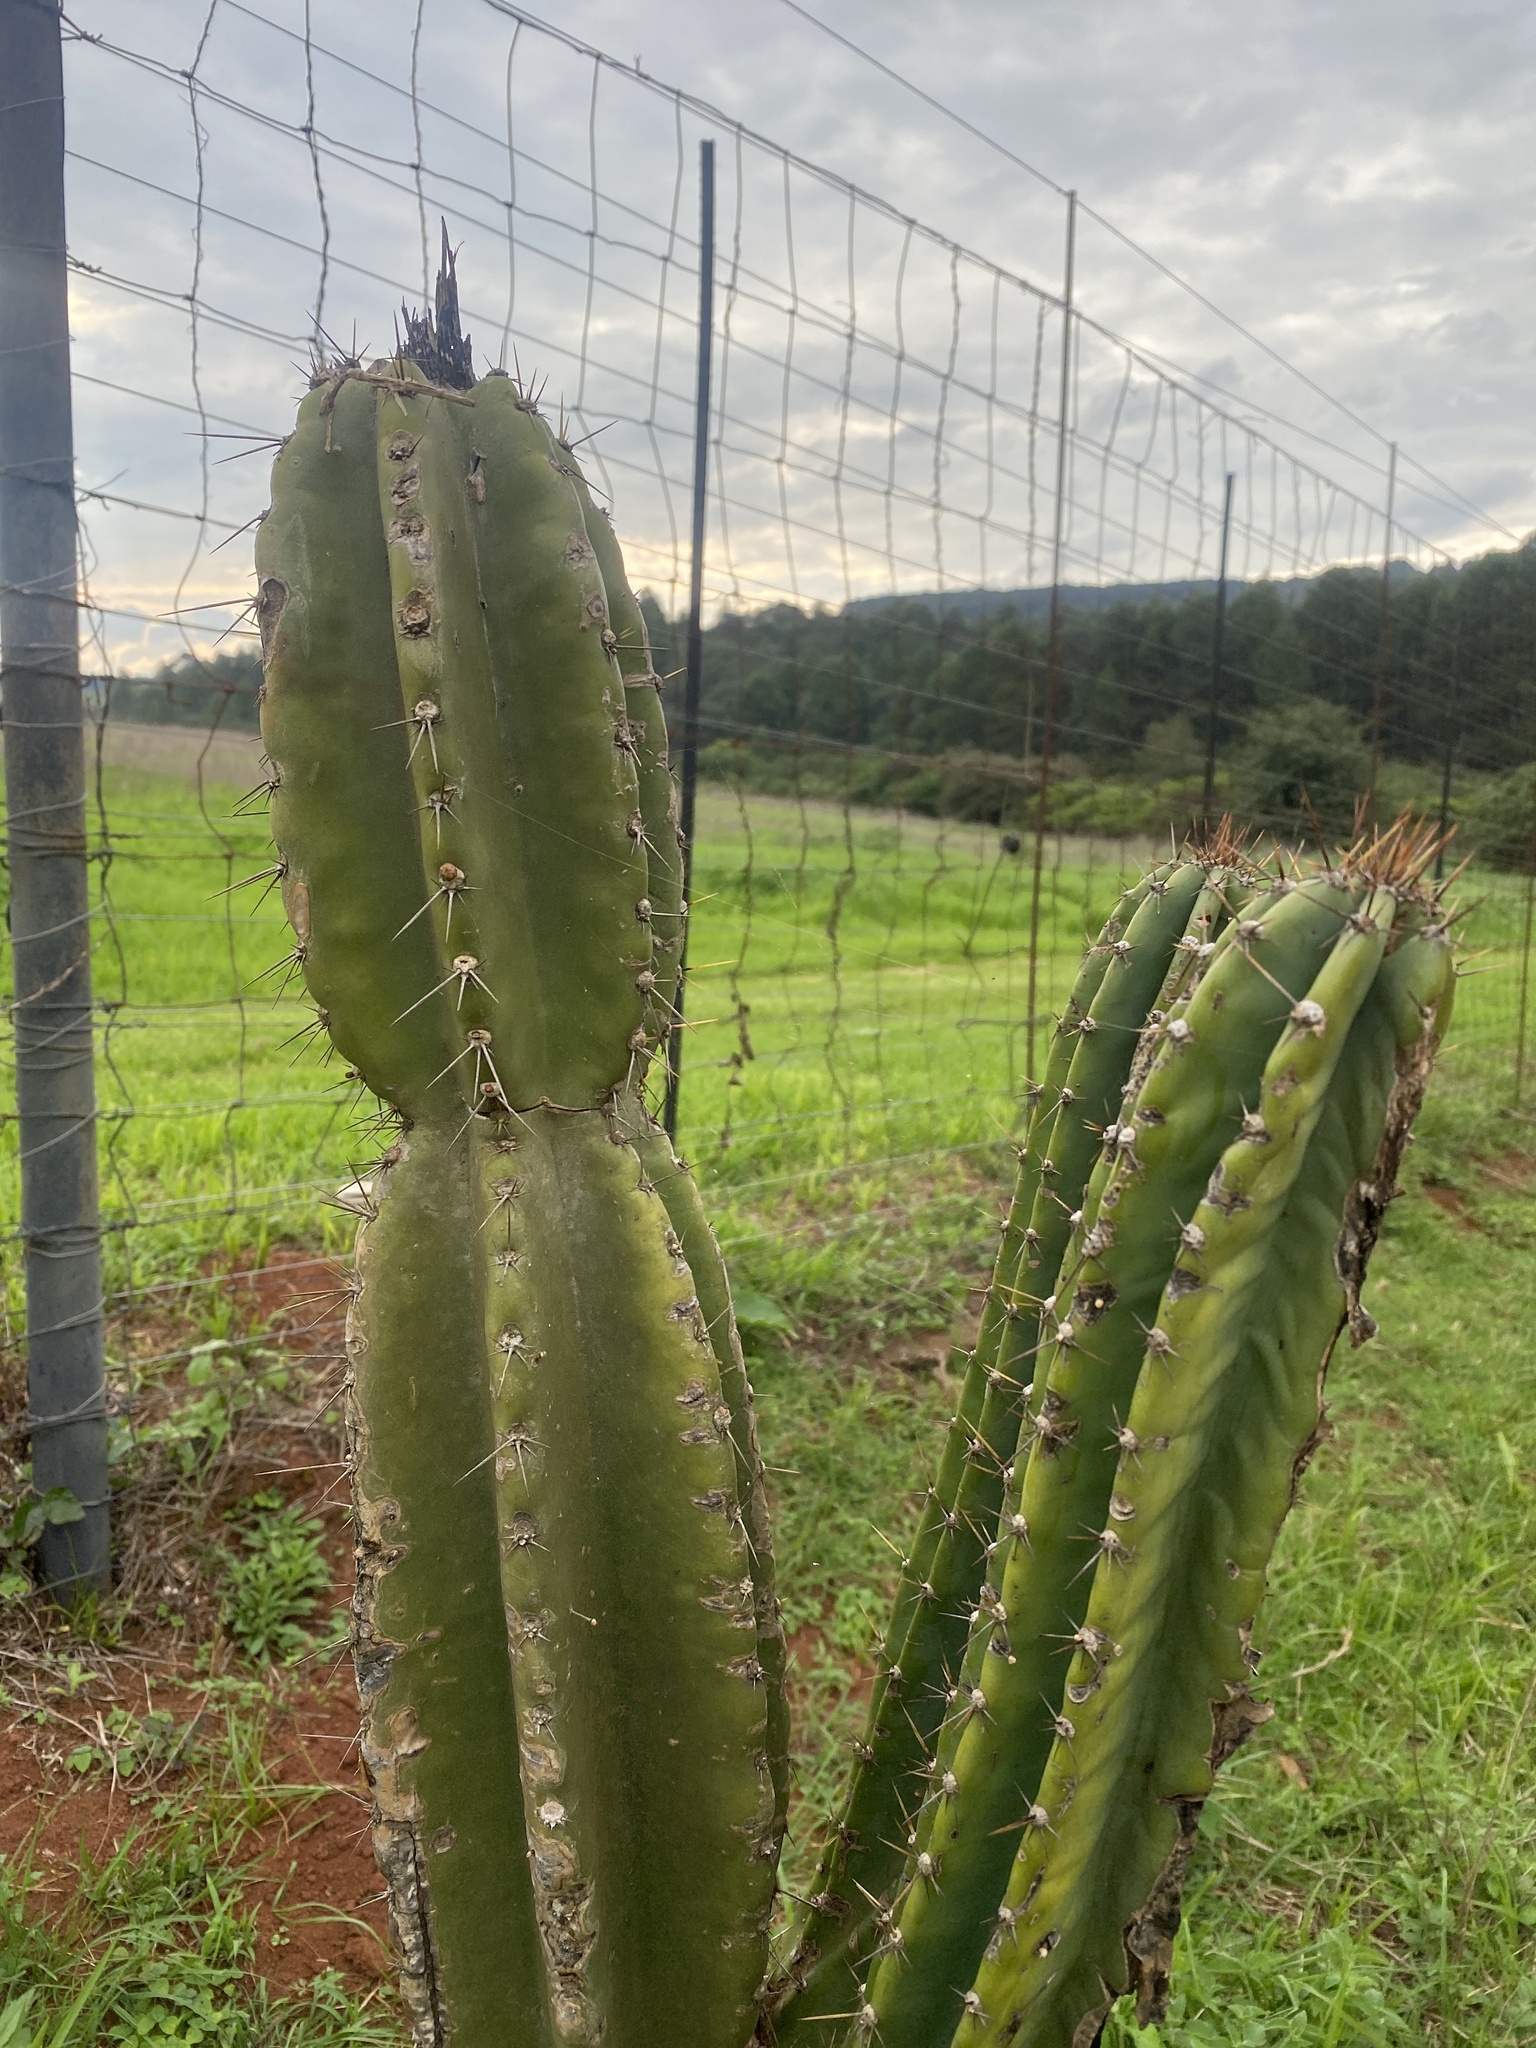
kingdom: Plantae
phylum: Tracheophyta
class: Magnoliopsida
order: Caryophyllales
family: Cactaceae
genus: Cereus
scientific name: Cereus jamacaru
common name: Queen-of-the-night
